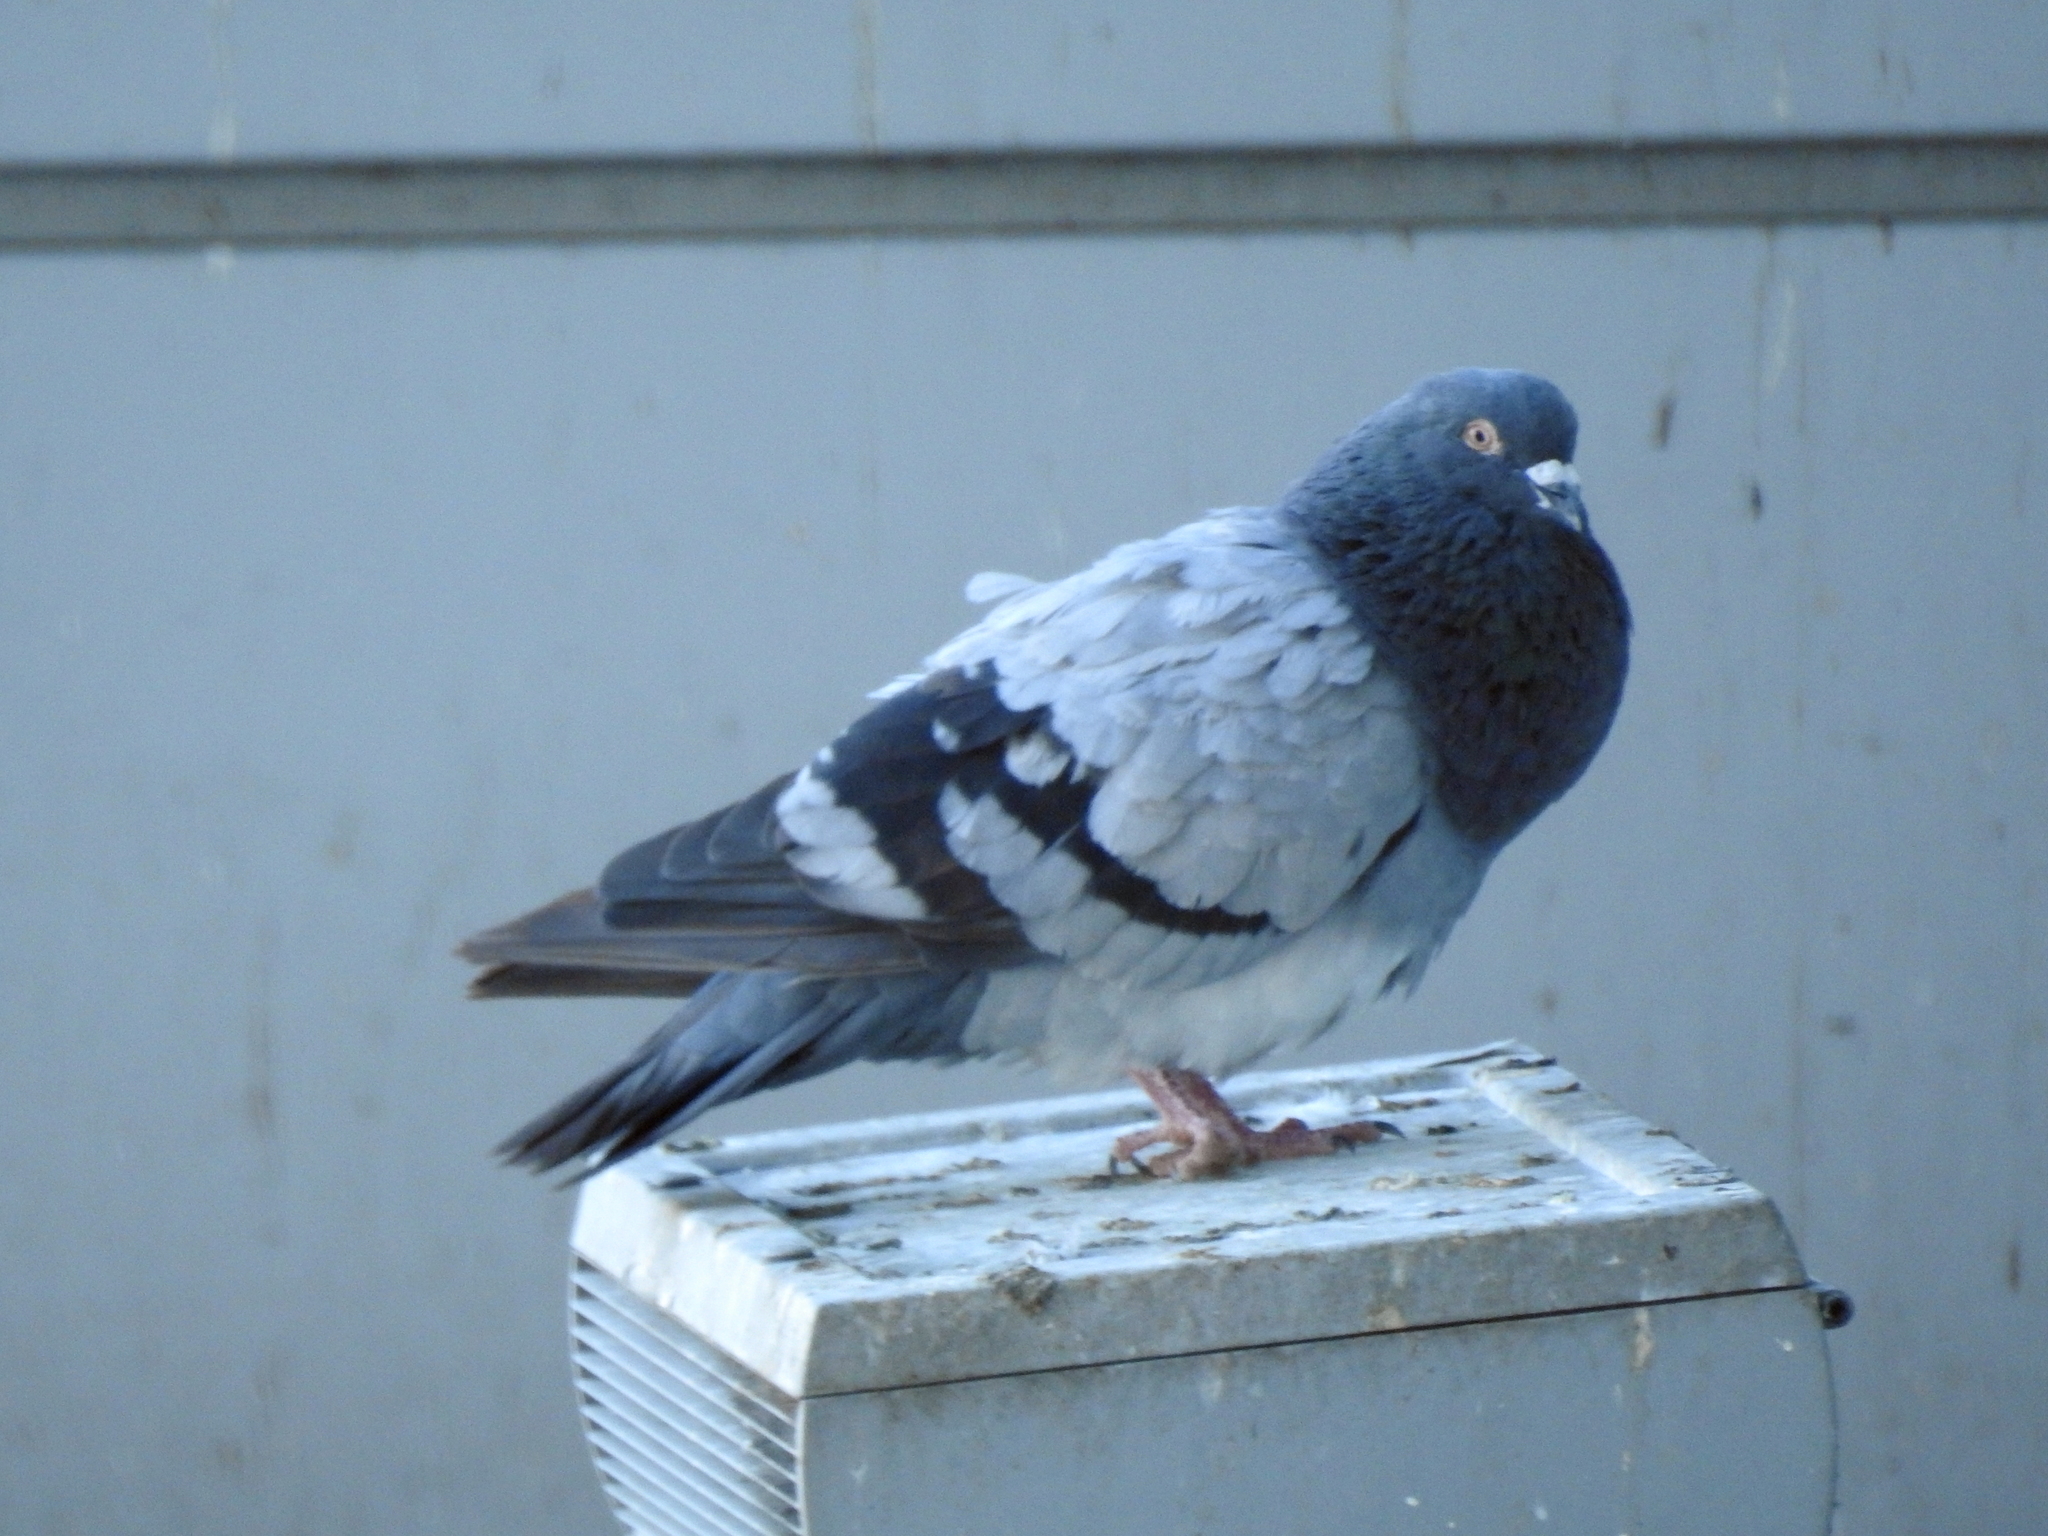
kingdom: Animalia
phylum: Chordata
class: Aves
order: Columbiformes
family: Columbidae
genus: Columba
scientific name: Columba livia
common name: Rock pigeon
